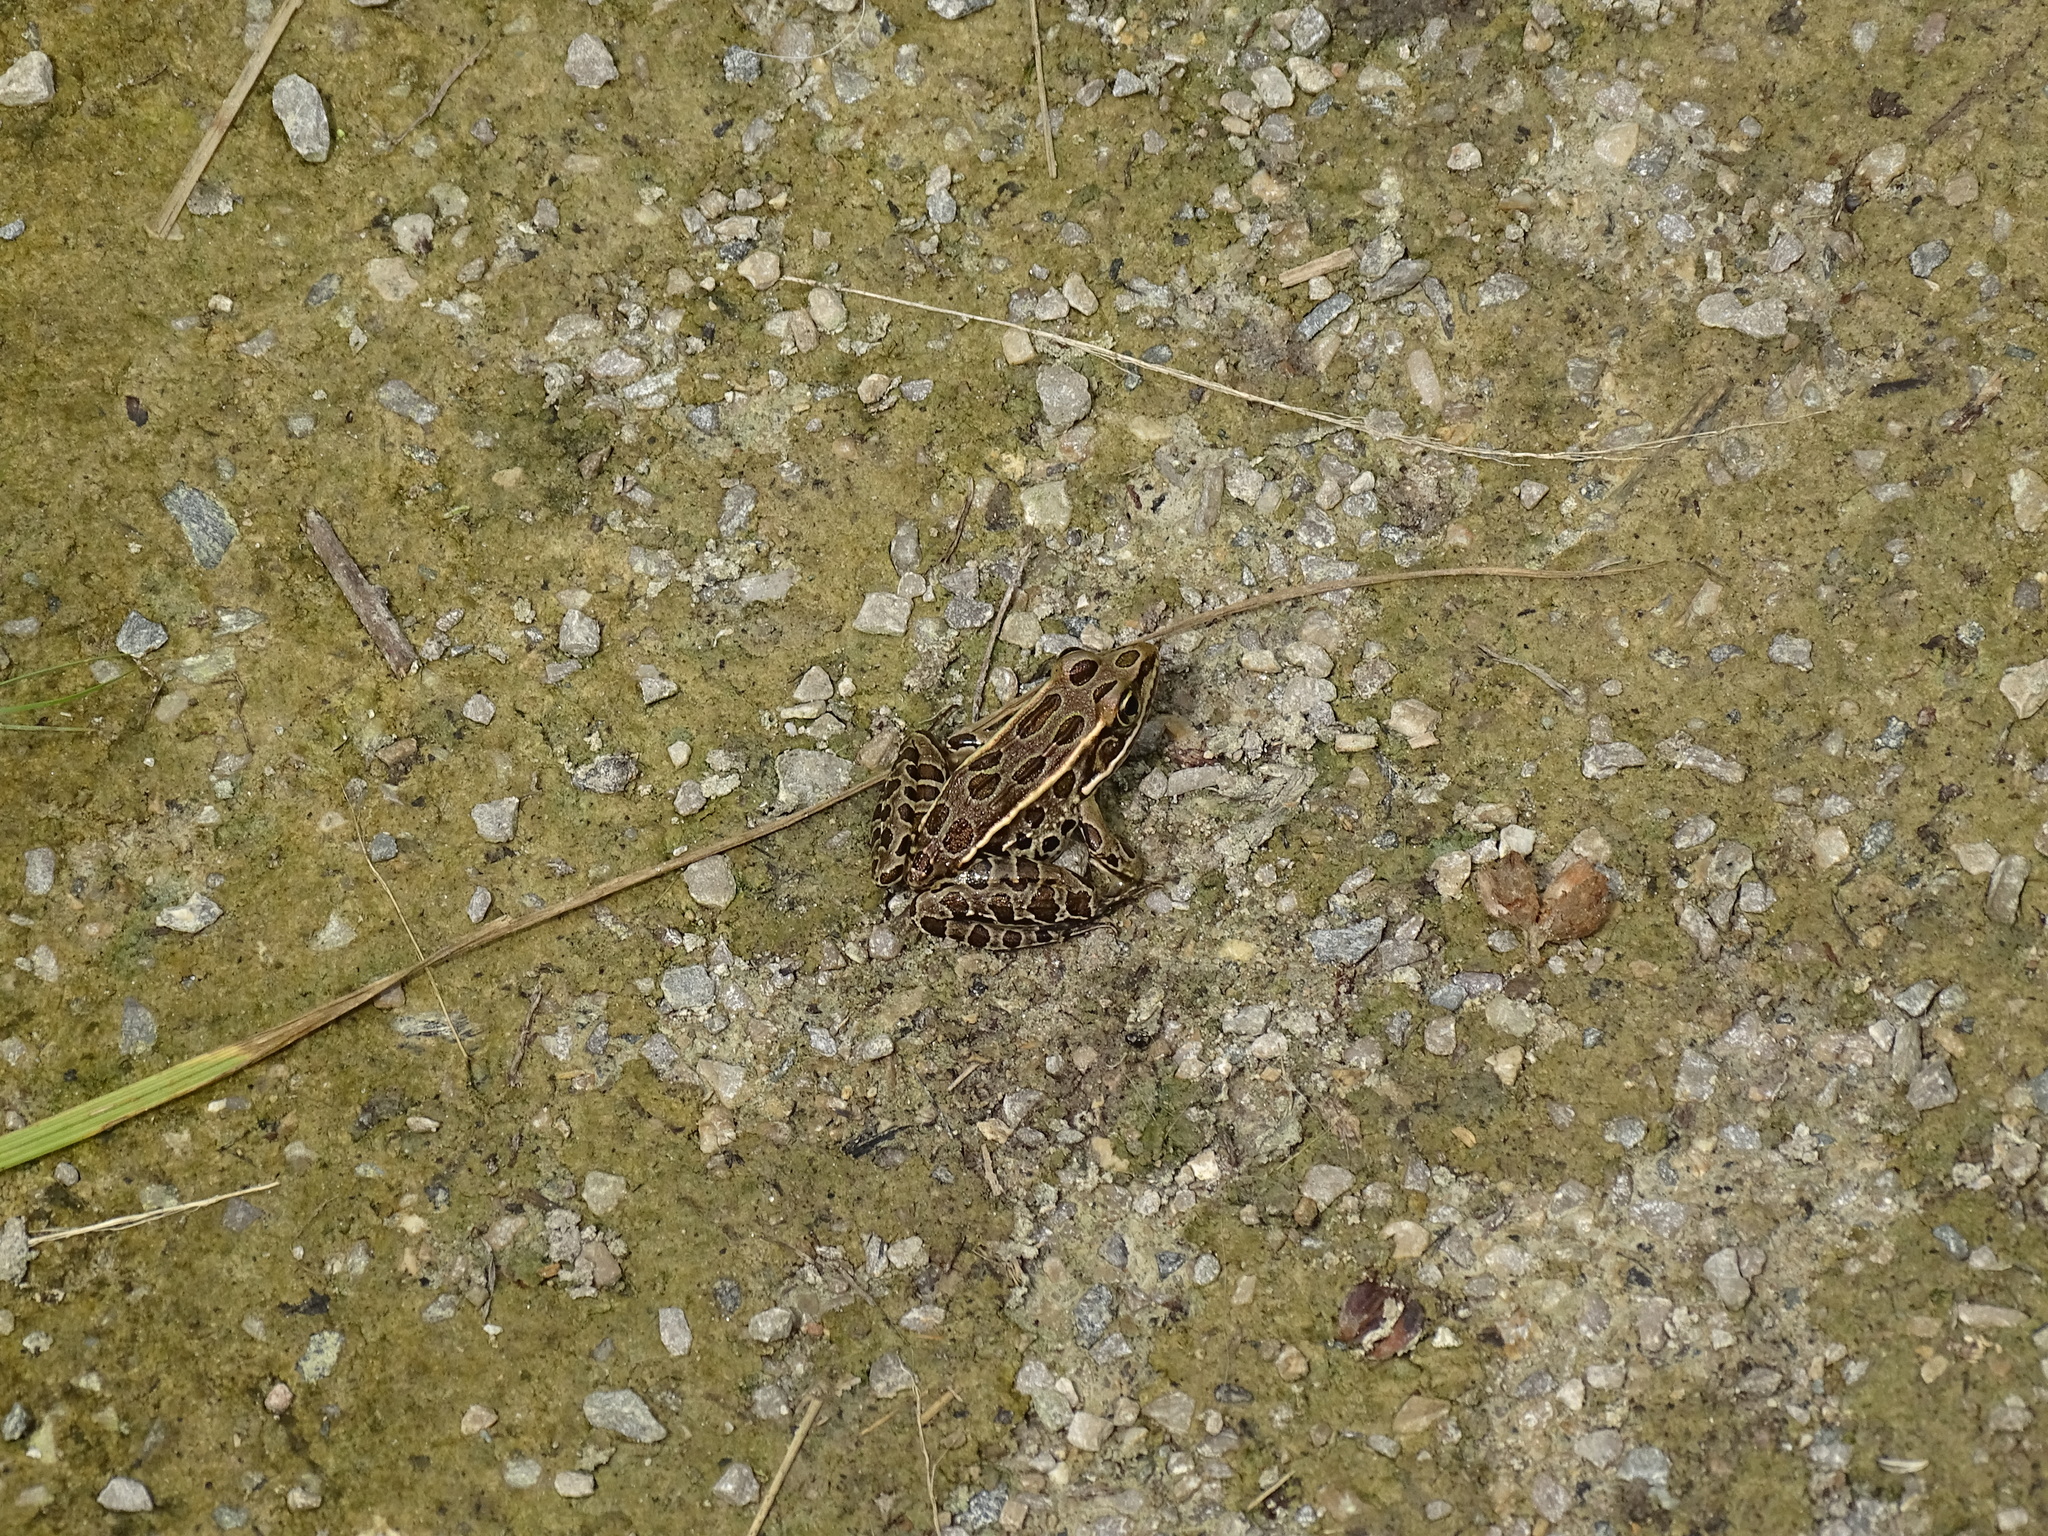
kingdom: Animalia
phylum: Chordata
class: Amphibia
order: Anura
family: Ranidae
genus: Lithobates
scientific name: Lithobates pipiens
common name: Northern leopard frog
